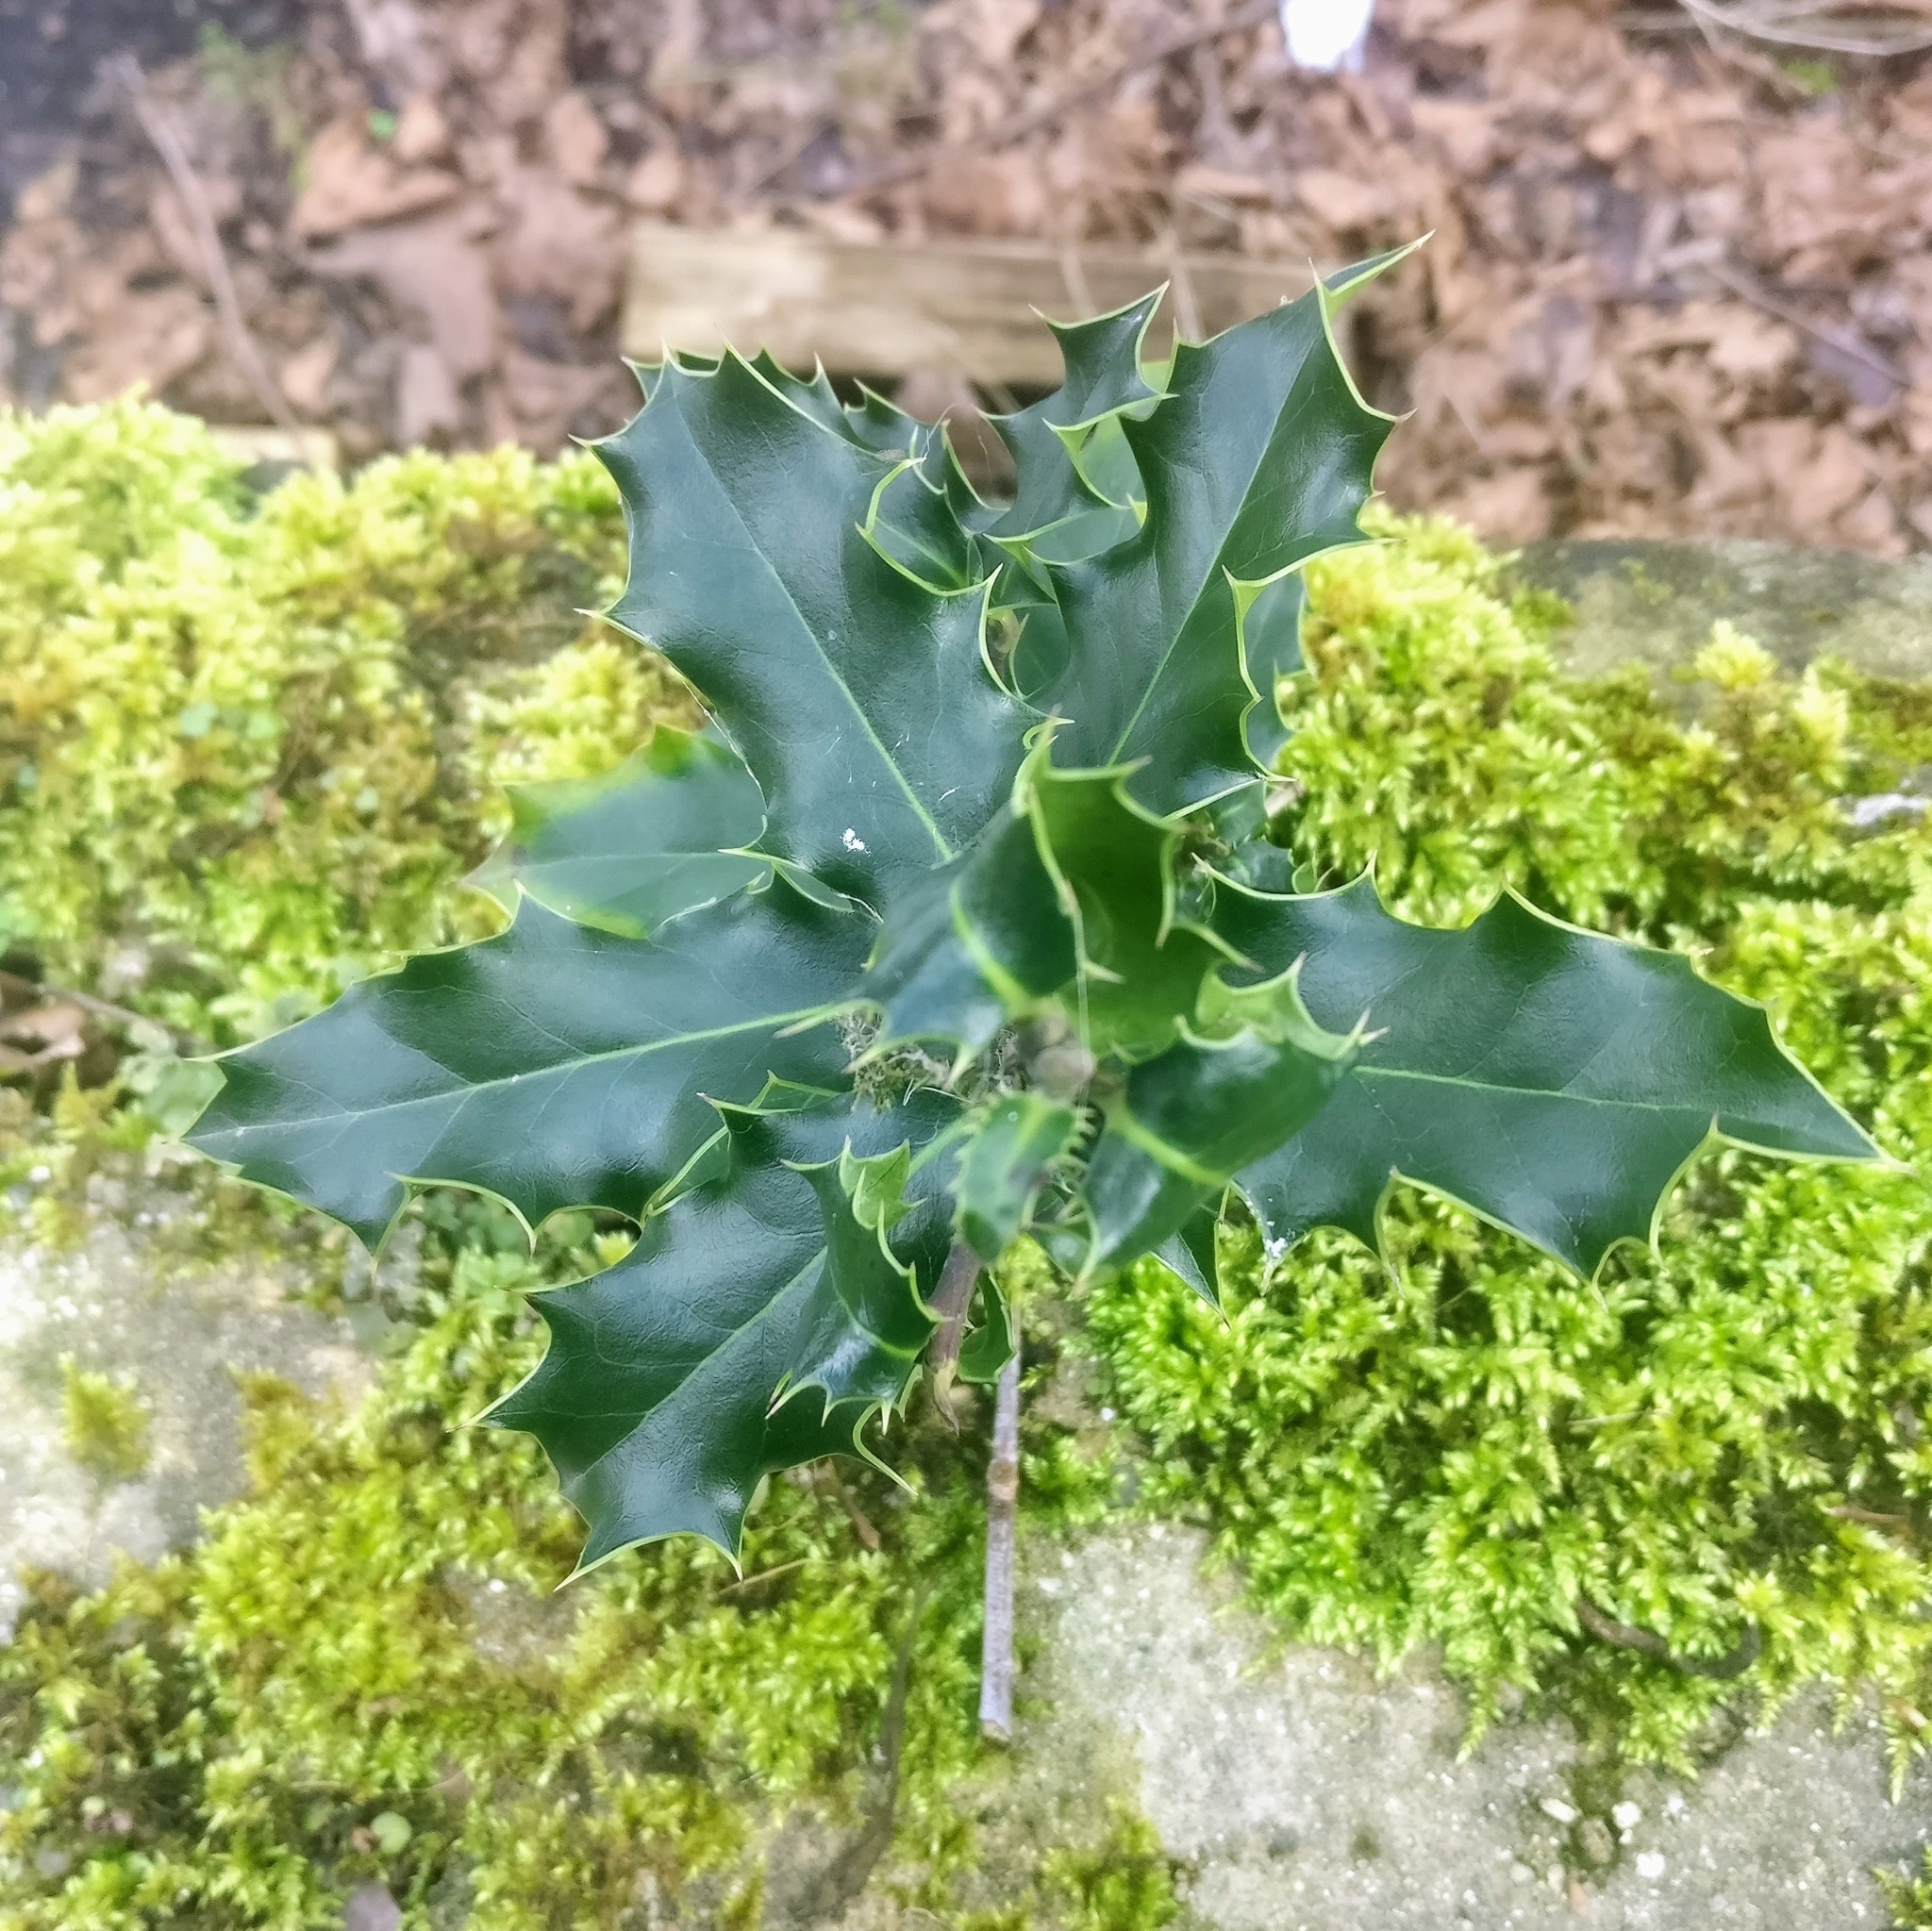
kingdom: Plantae
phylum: Tracheophyta
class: Magnoliopsida
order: Aquifoliales
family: Aquifoliaceae
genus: Ilex
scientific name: Ilex aquifolium
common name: English holly
